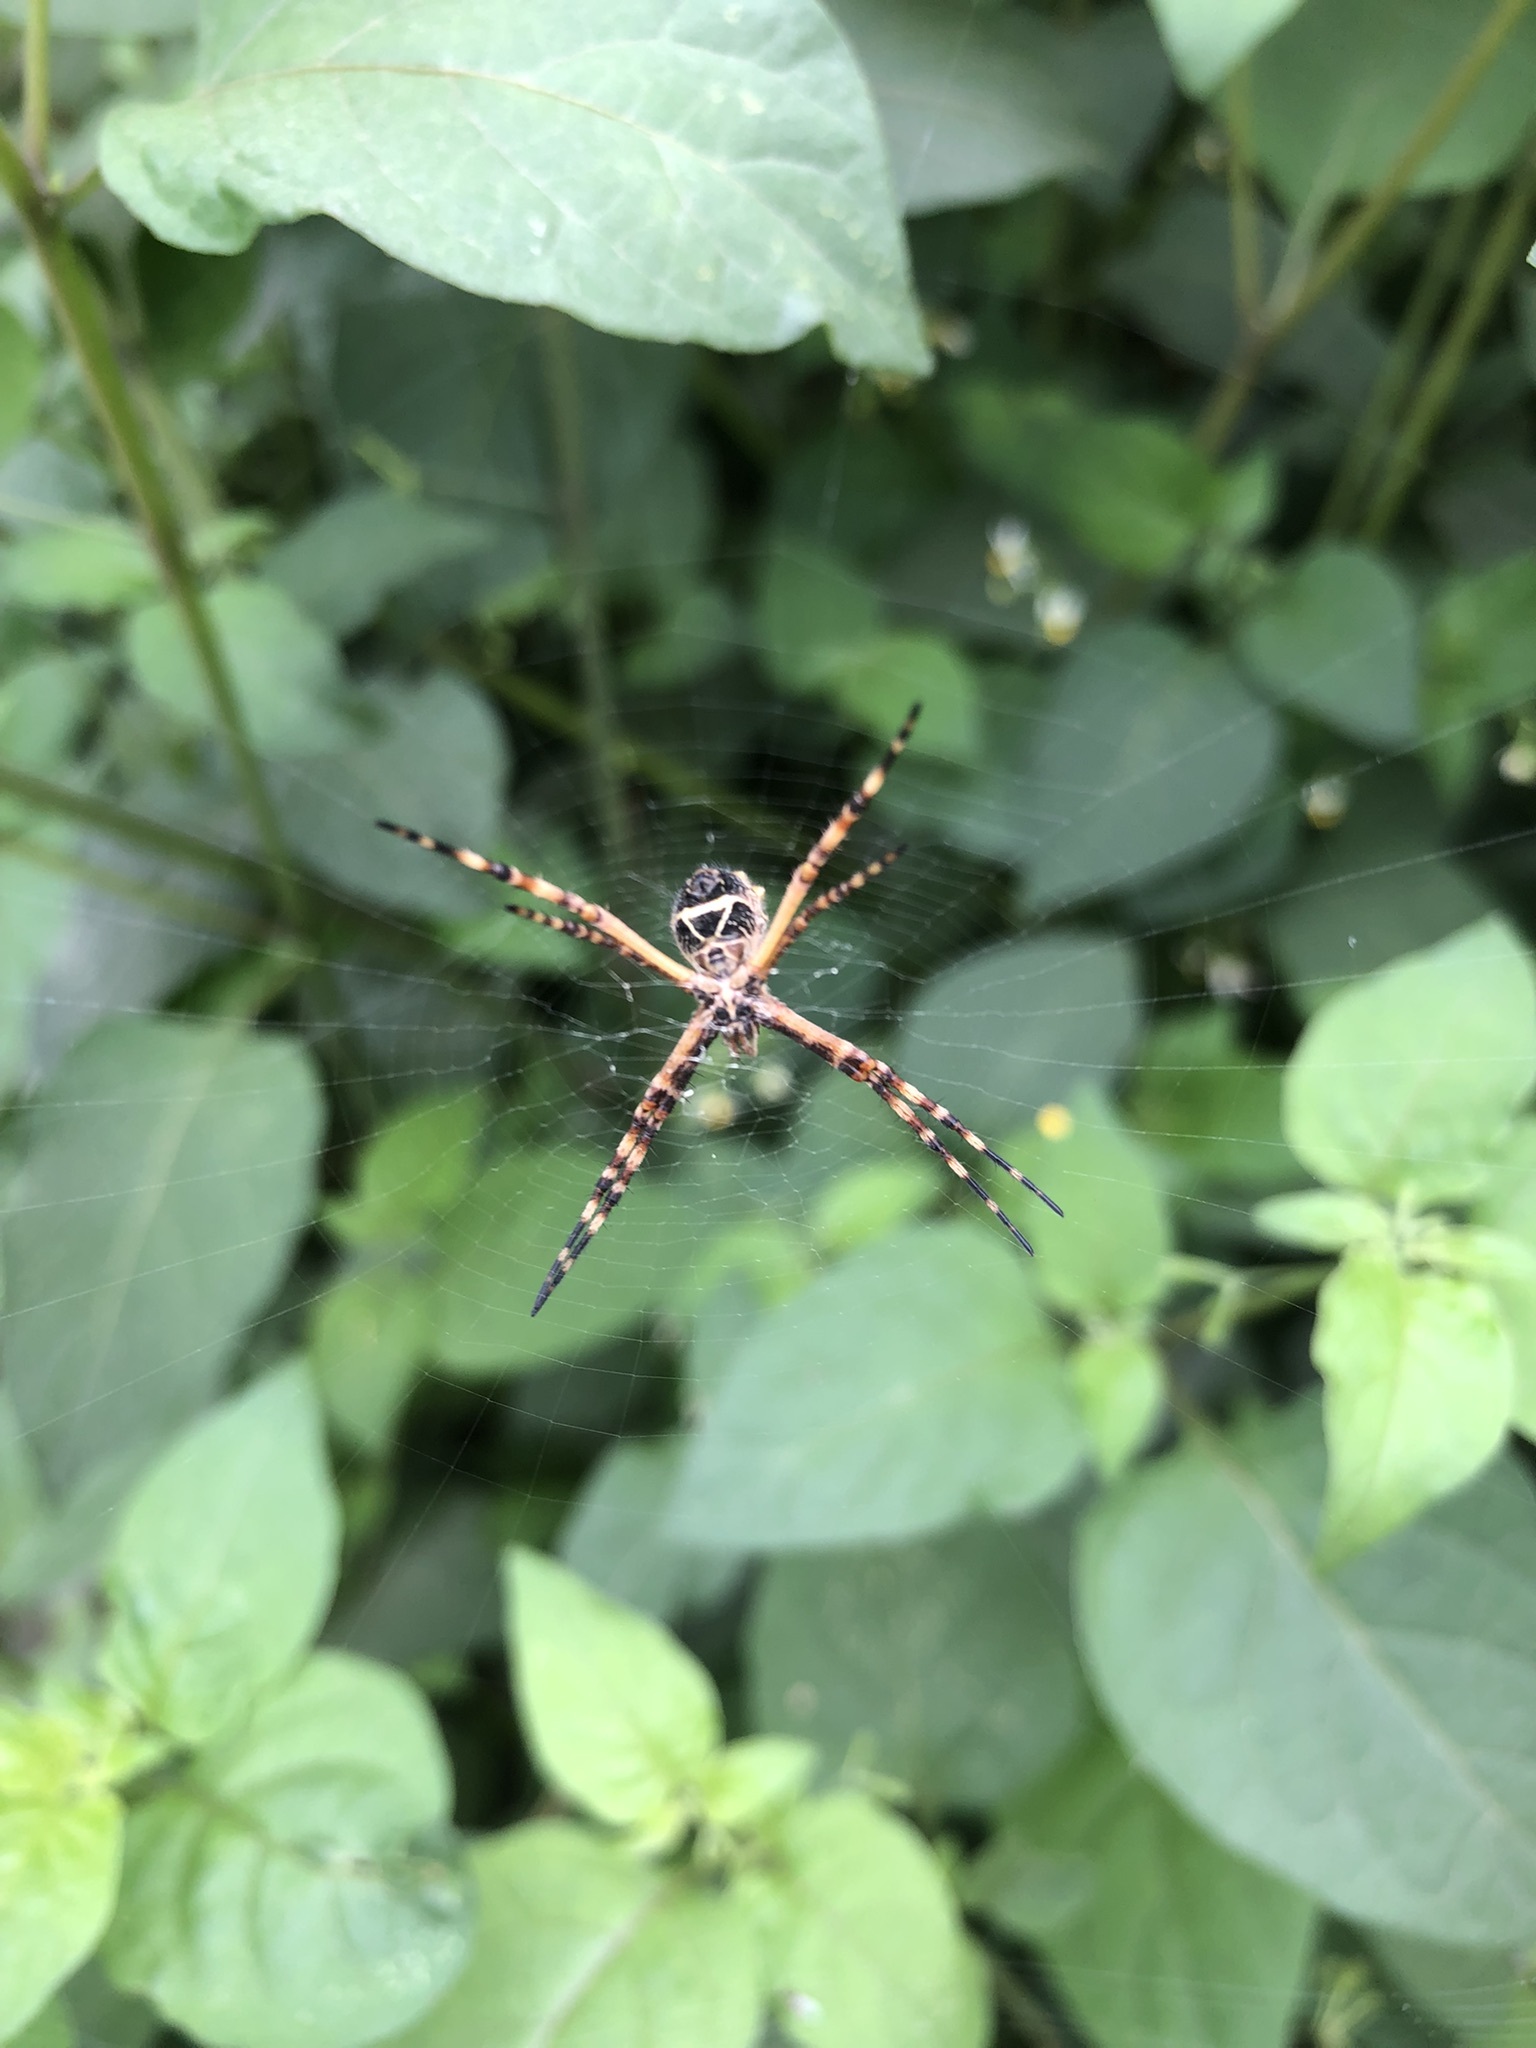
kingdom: Animalia
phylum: Arthropoda
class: Arachnida
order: Araneae
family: Araneidae
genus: Argiope
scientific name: Argiope argentata
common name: Orb weavers
